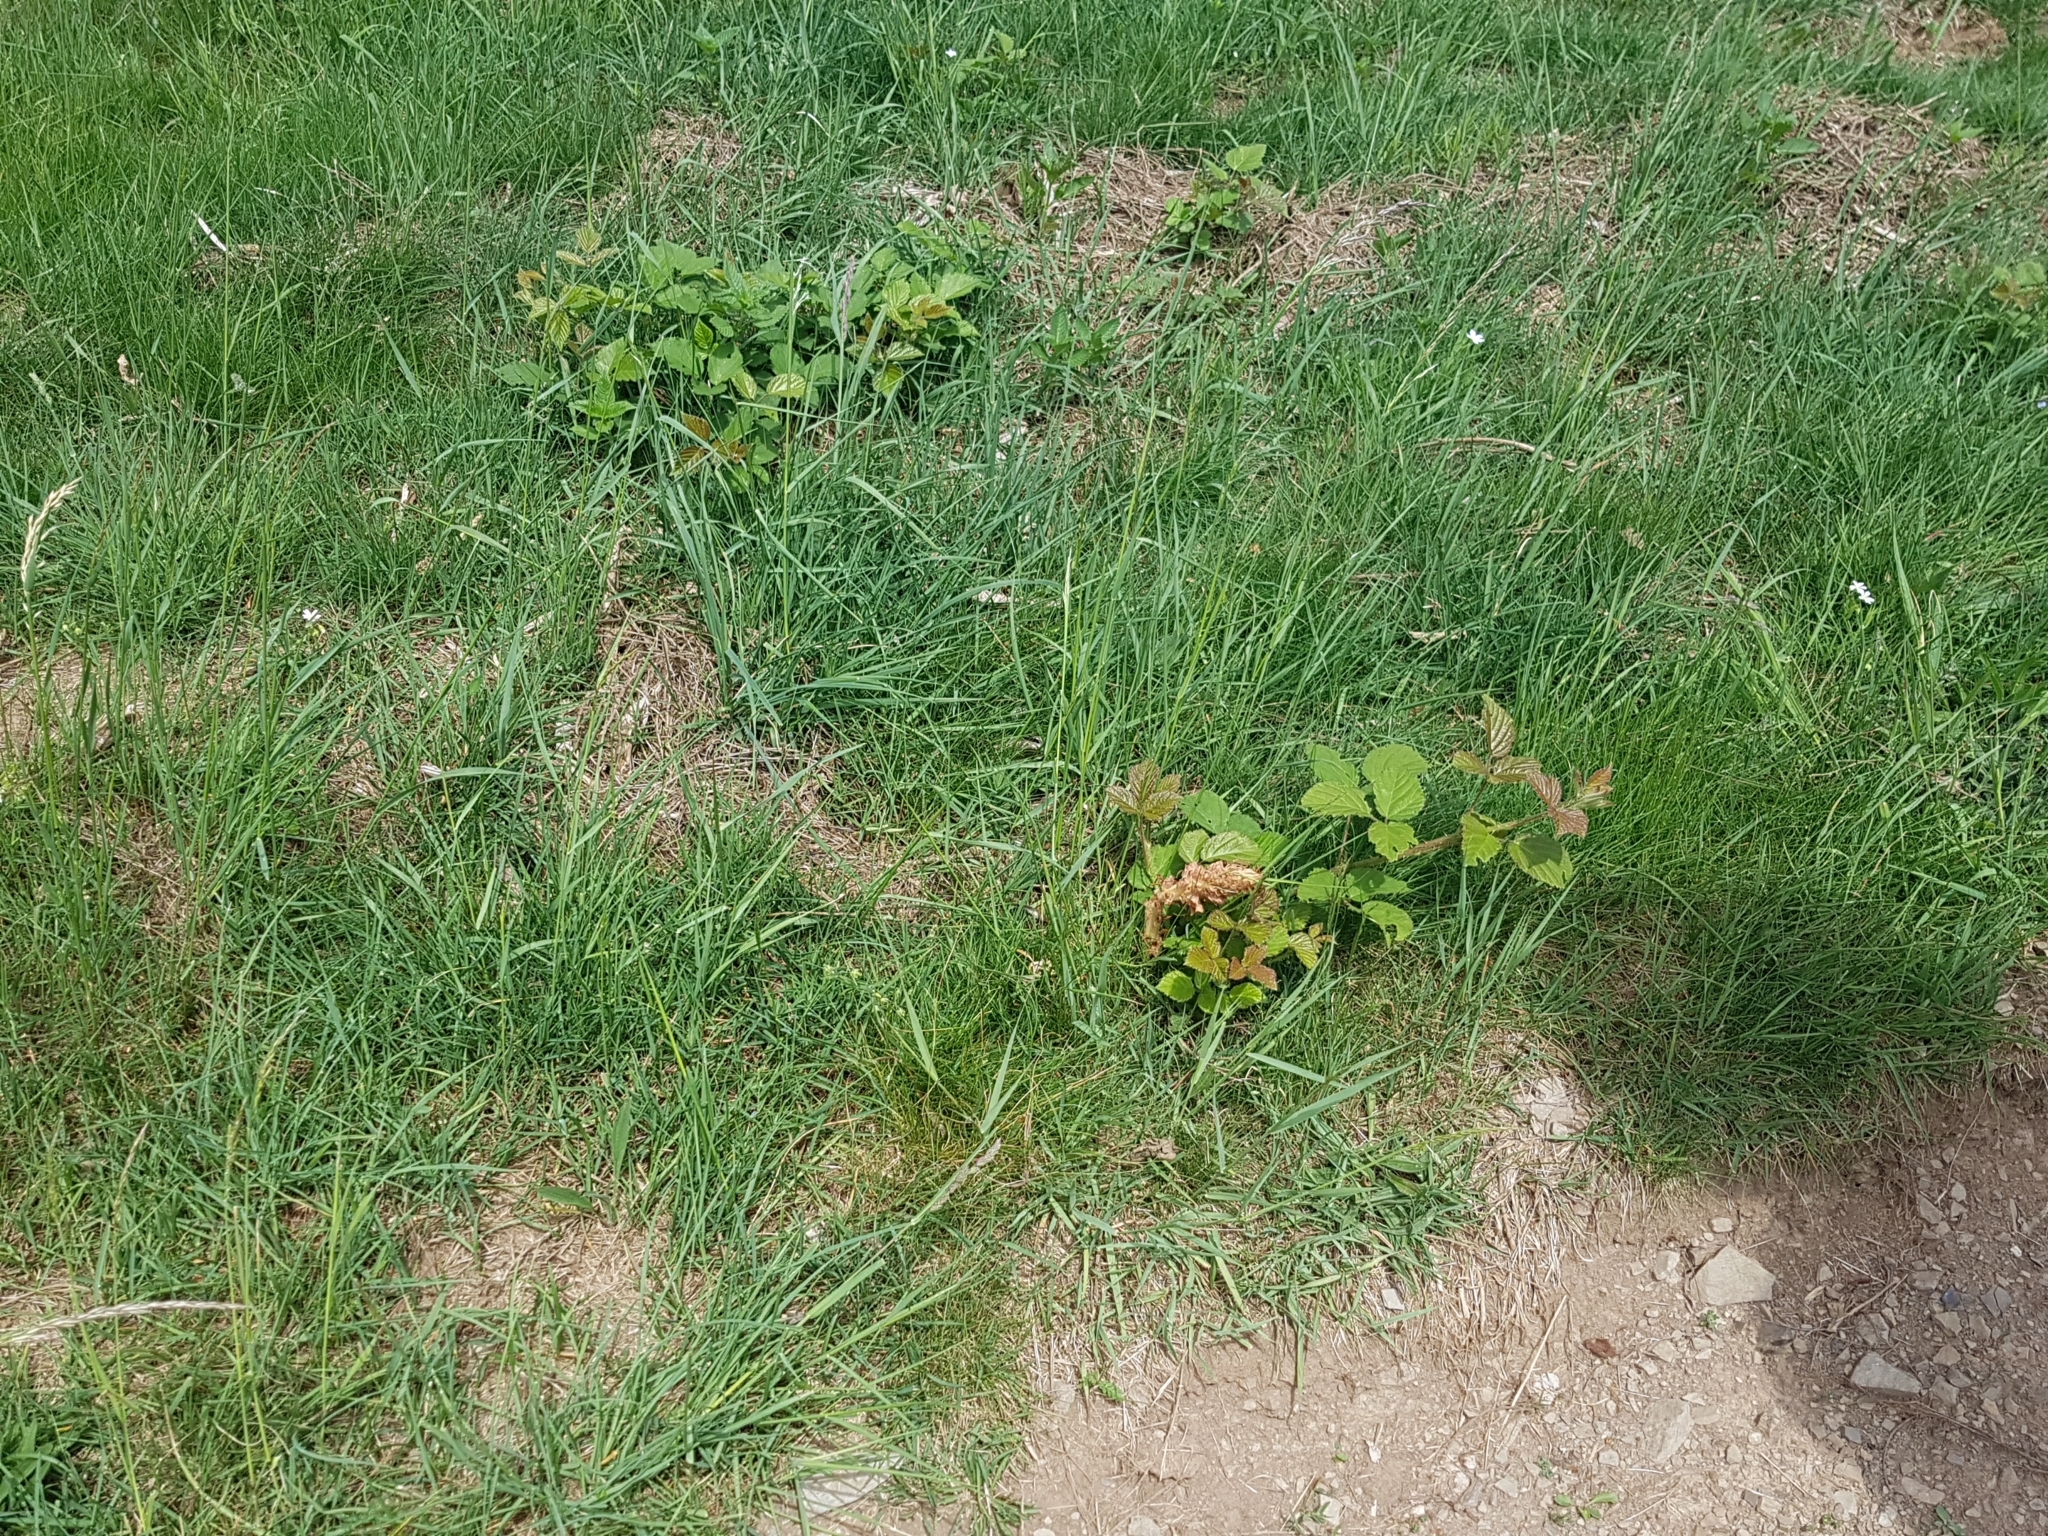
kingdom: Plantae
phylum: Tracheophyta
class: Magnoliopsida
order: Lamiales
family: Orobanchaceae
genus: Orobanche
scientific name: Orobanche rapum-genistae
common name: Greater broomrape
